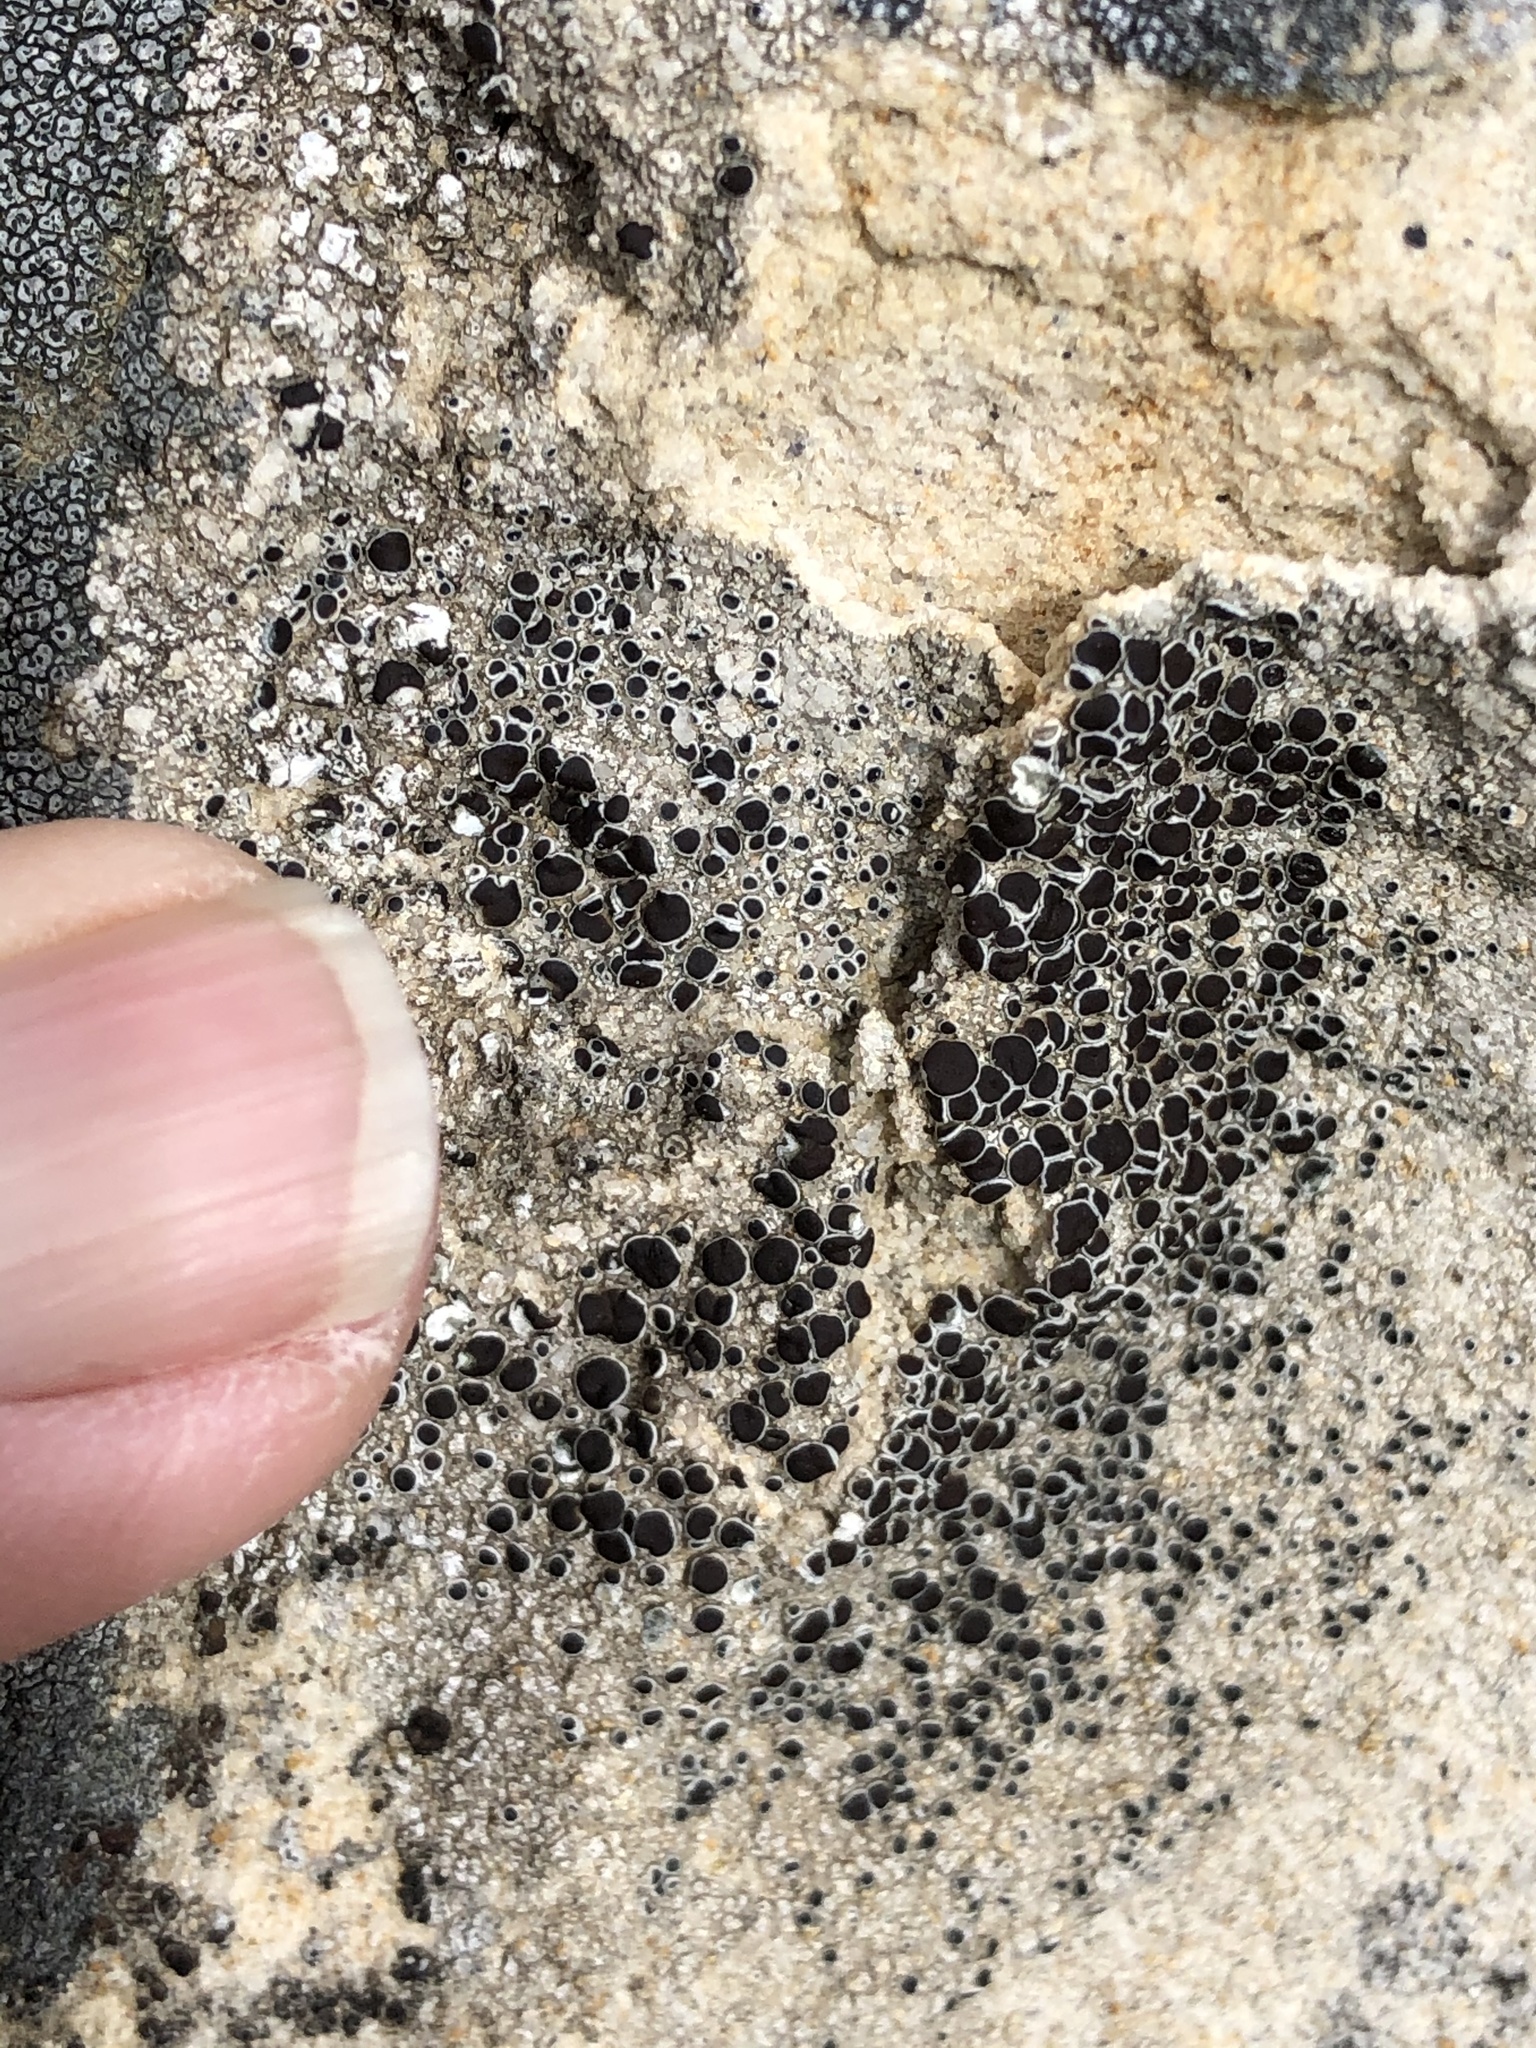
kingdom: Fungi
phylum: Ascomycota
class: Lecanoromycetes
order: Lecanorales
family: Tephromelataceae
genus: Tephromela
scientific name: Tephromela atra
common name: Black shields
